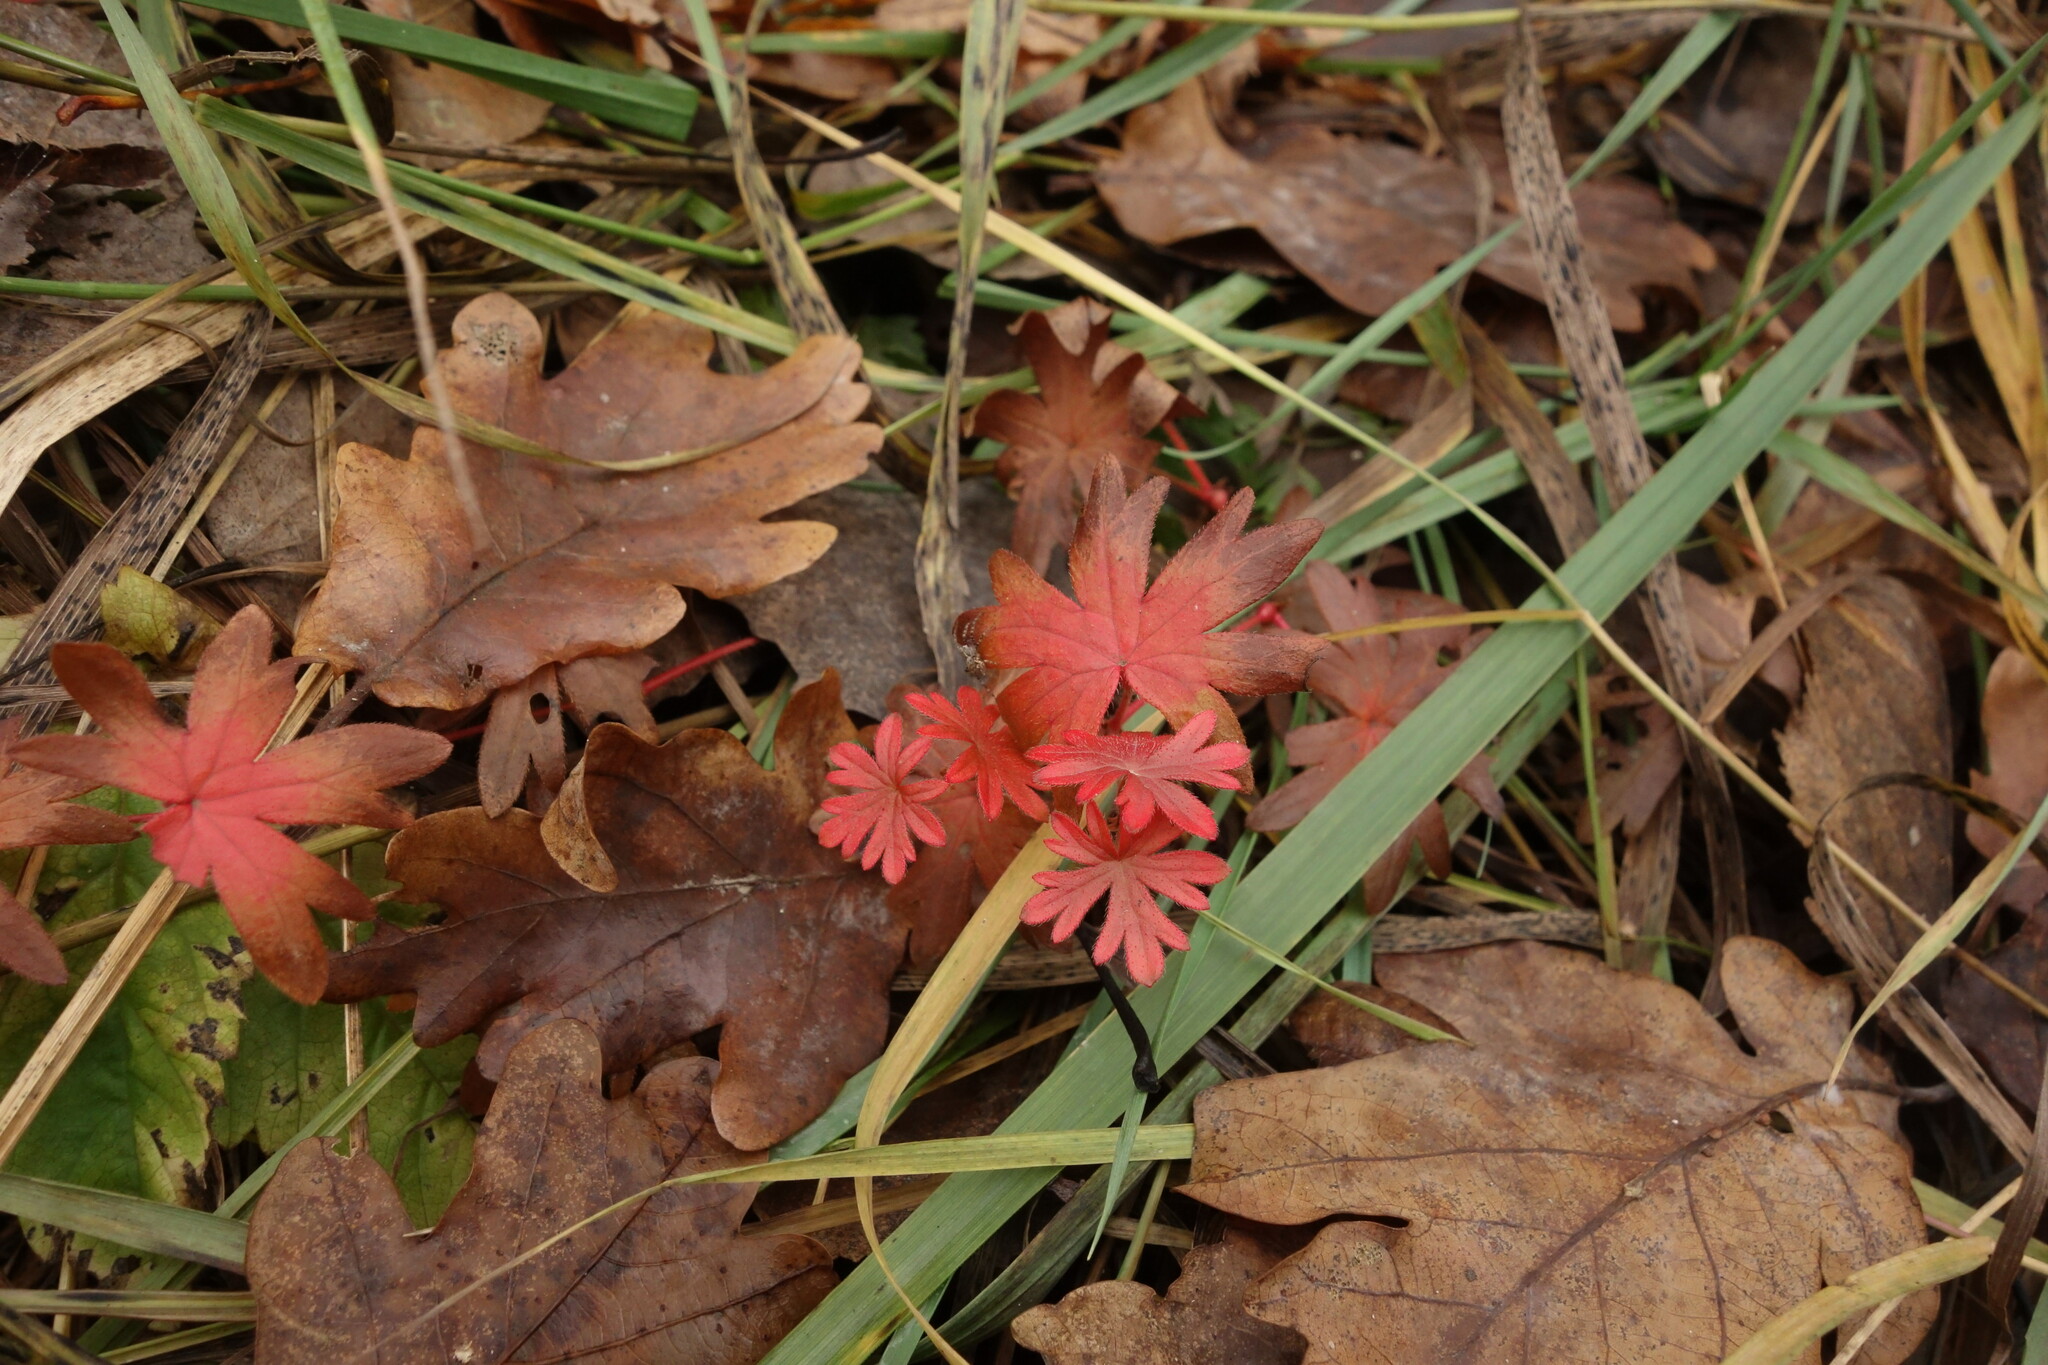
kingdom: Plantae
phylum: Tracheophyta
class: Magnoliopsida
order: Geraniales
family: Geraniaceae
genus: Geranium
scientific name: Geranium sanguineum
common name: Bloody crane's-bill
